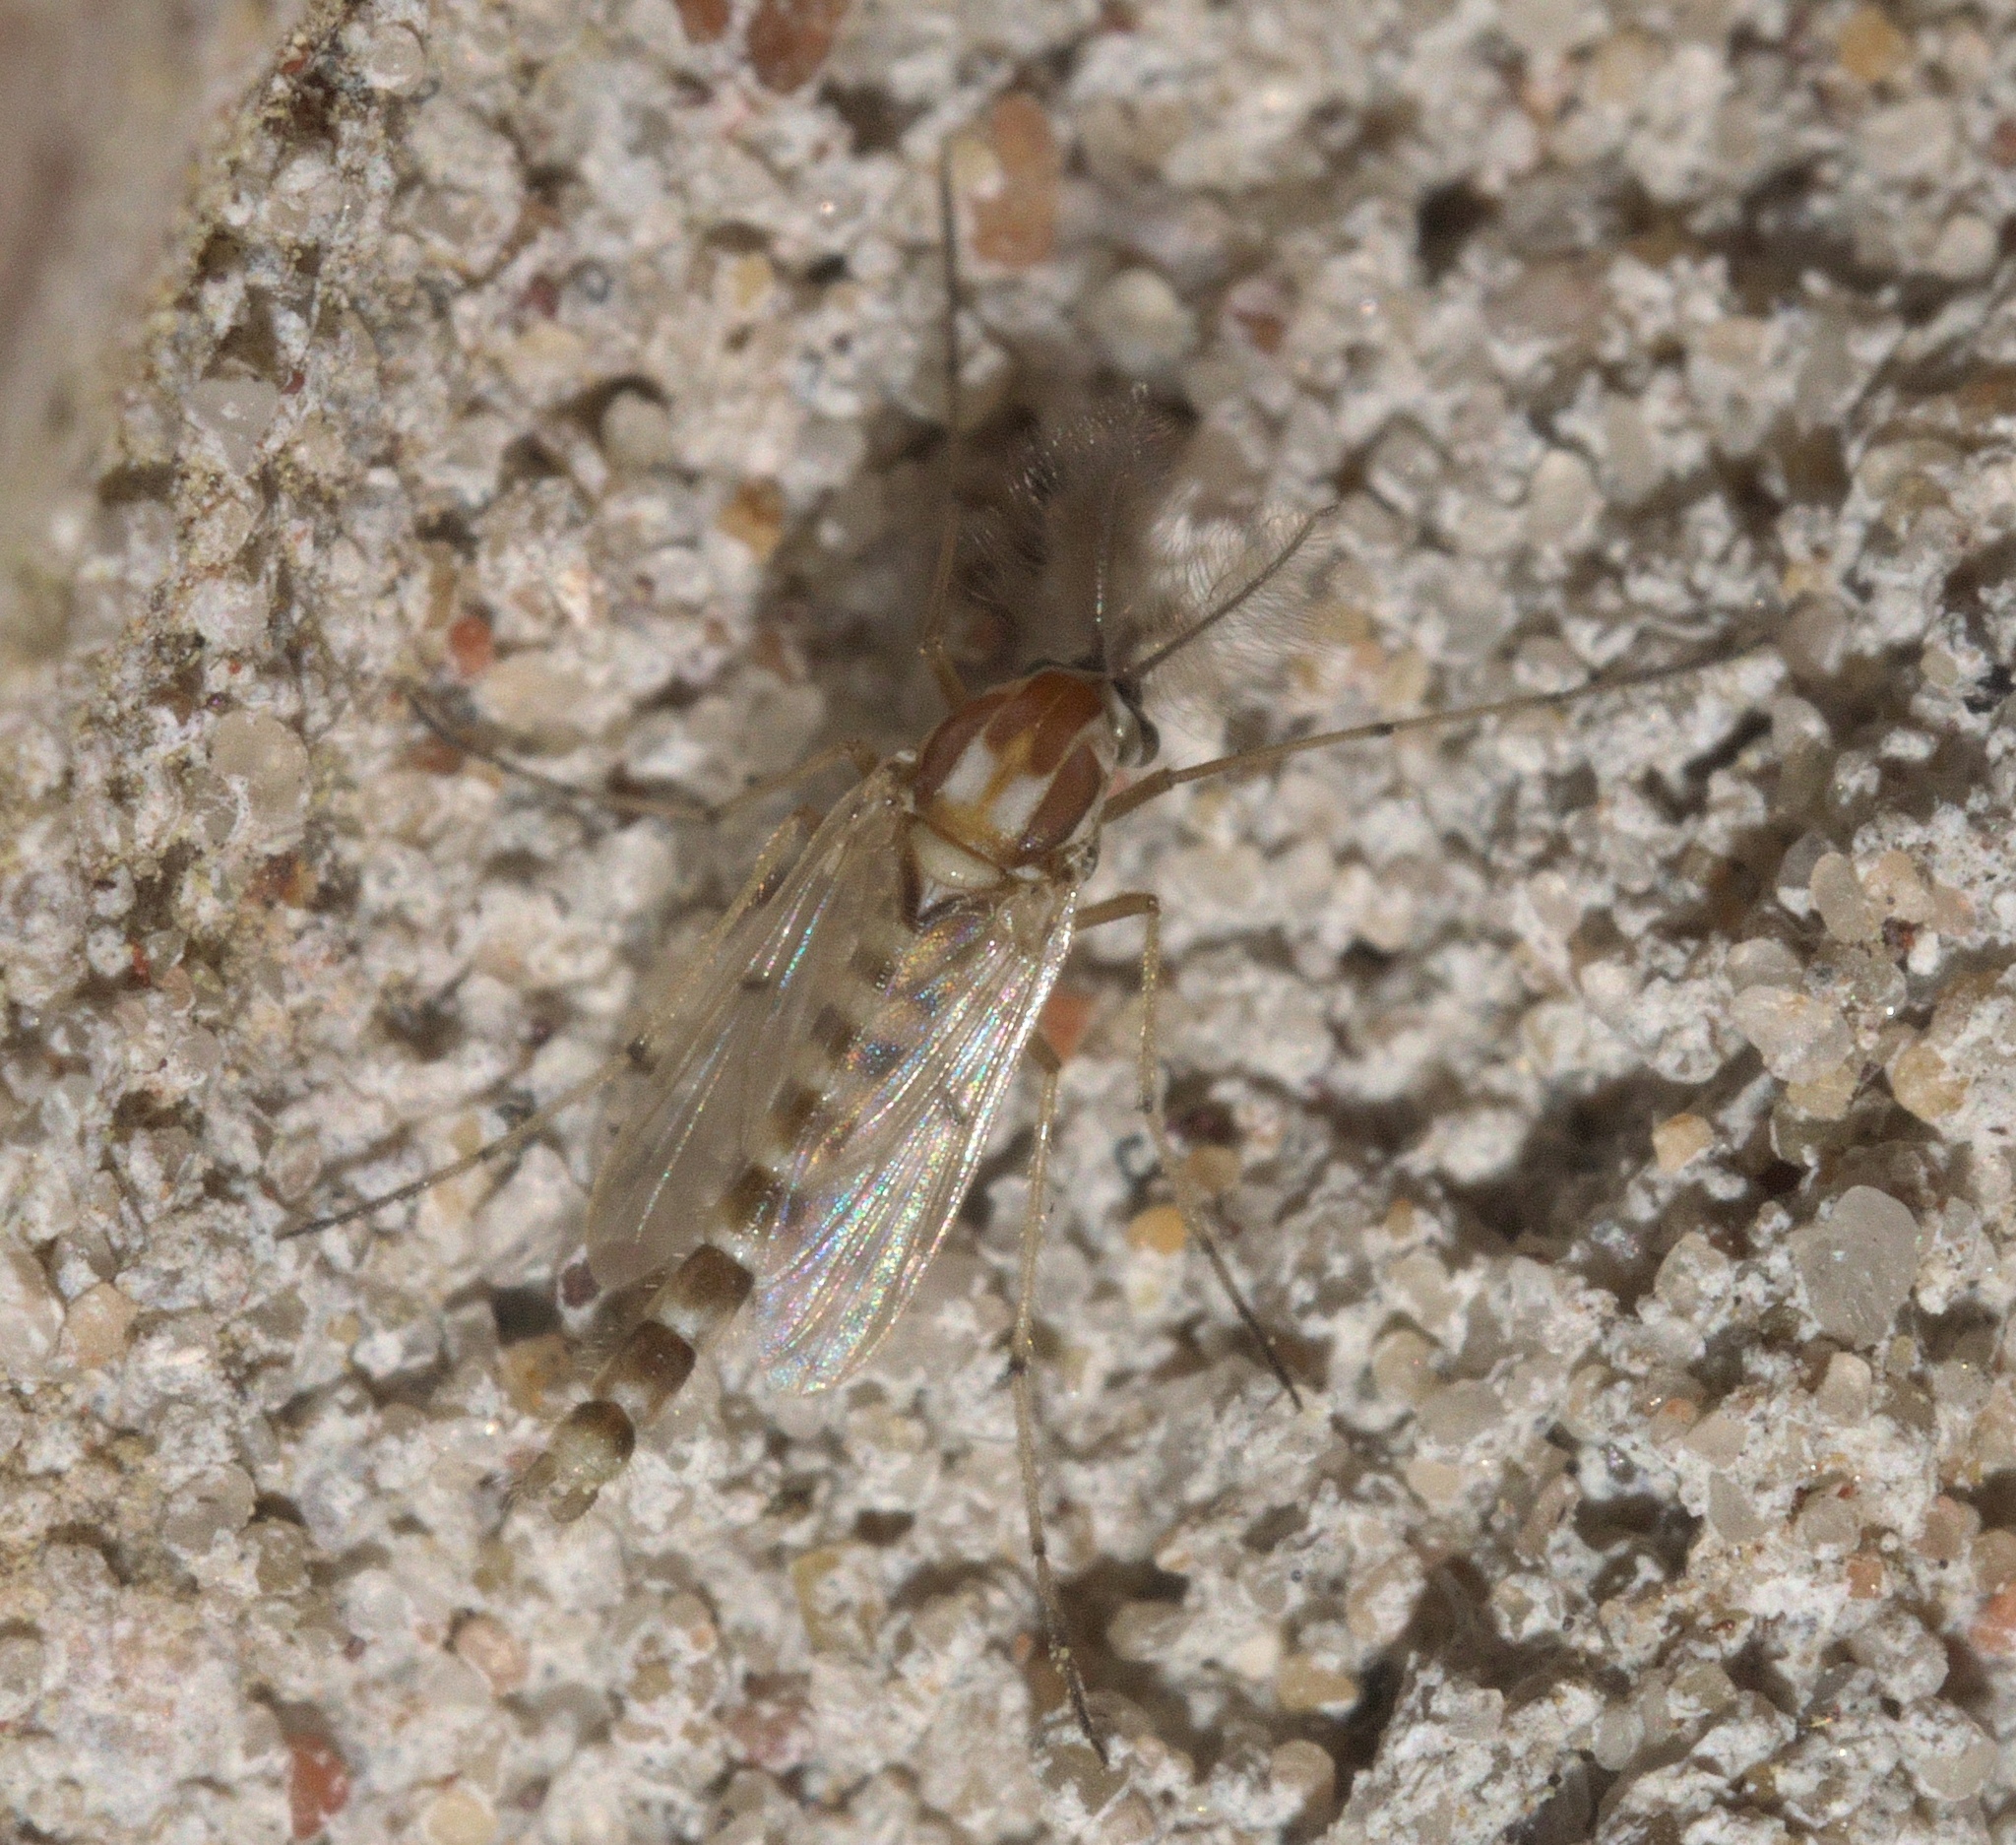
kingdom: Animalia
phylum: Arthropoda
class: Insecta
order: Diptera
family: Chironomidae
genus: Procladius
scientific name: Procladius bellus
